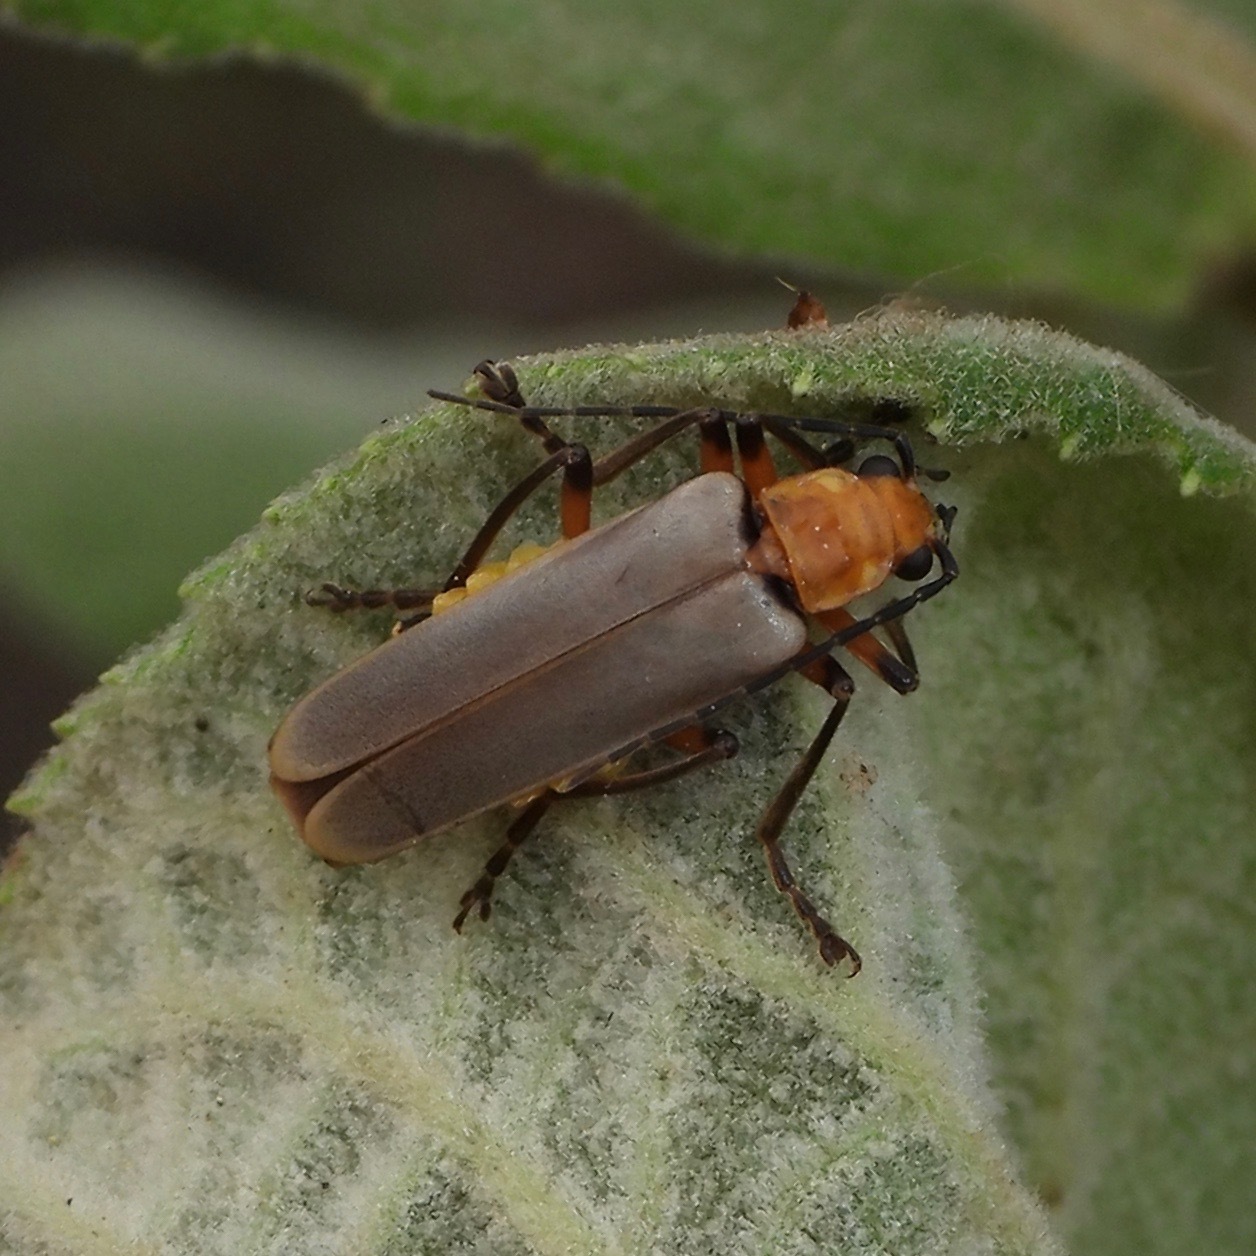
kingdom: Animalia
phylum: Arthropoda
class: Insecta
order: Coleoptera
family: Cantharidae
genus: Chauliognathus
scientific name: Chauliognathus
